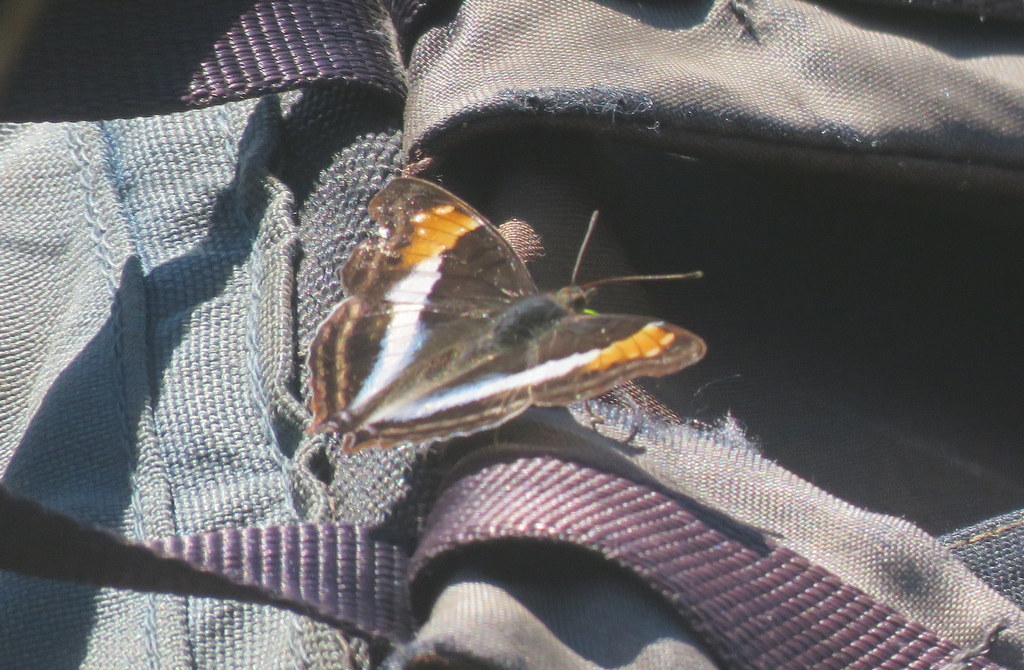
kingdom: Animalia
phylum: Arthropoda
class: Insecta
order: Lepidoptera
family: Nymphalidae
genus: Doxocopa
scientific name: Doxocopa laurentia
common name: Turquoise emperor
